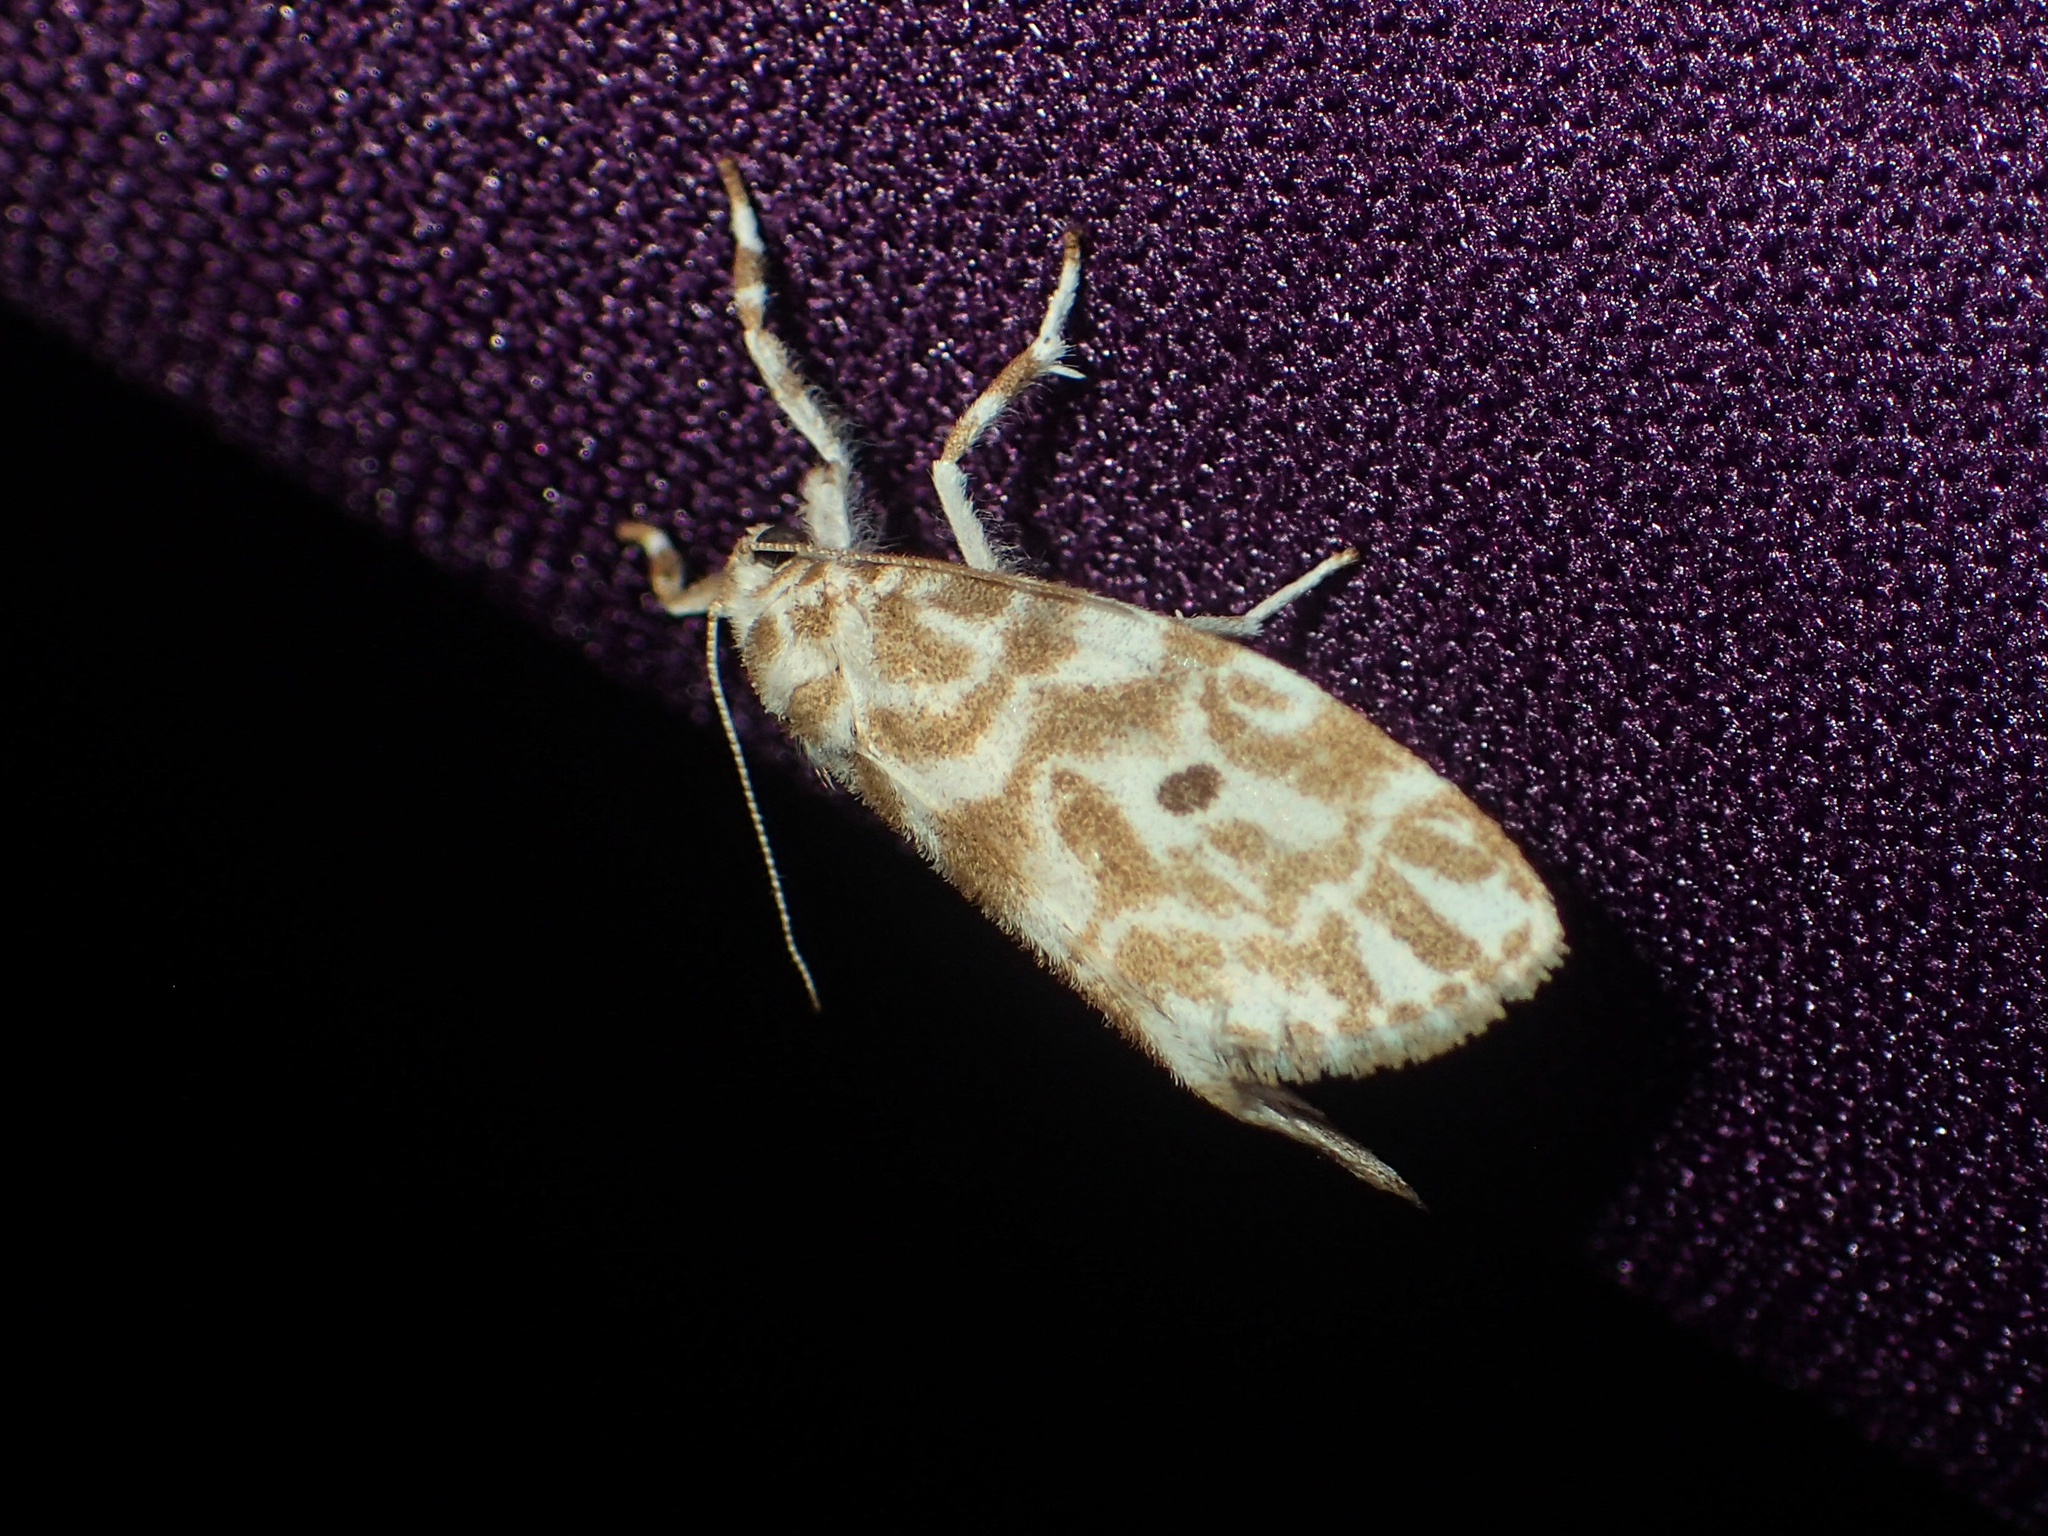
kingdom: Animalia
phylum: Arthropoda
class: Insecta
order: Lepidoptera
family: Erebidae
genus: Cabarda
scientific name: Cabarda nigripuncta
